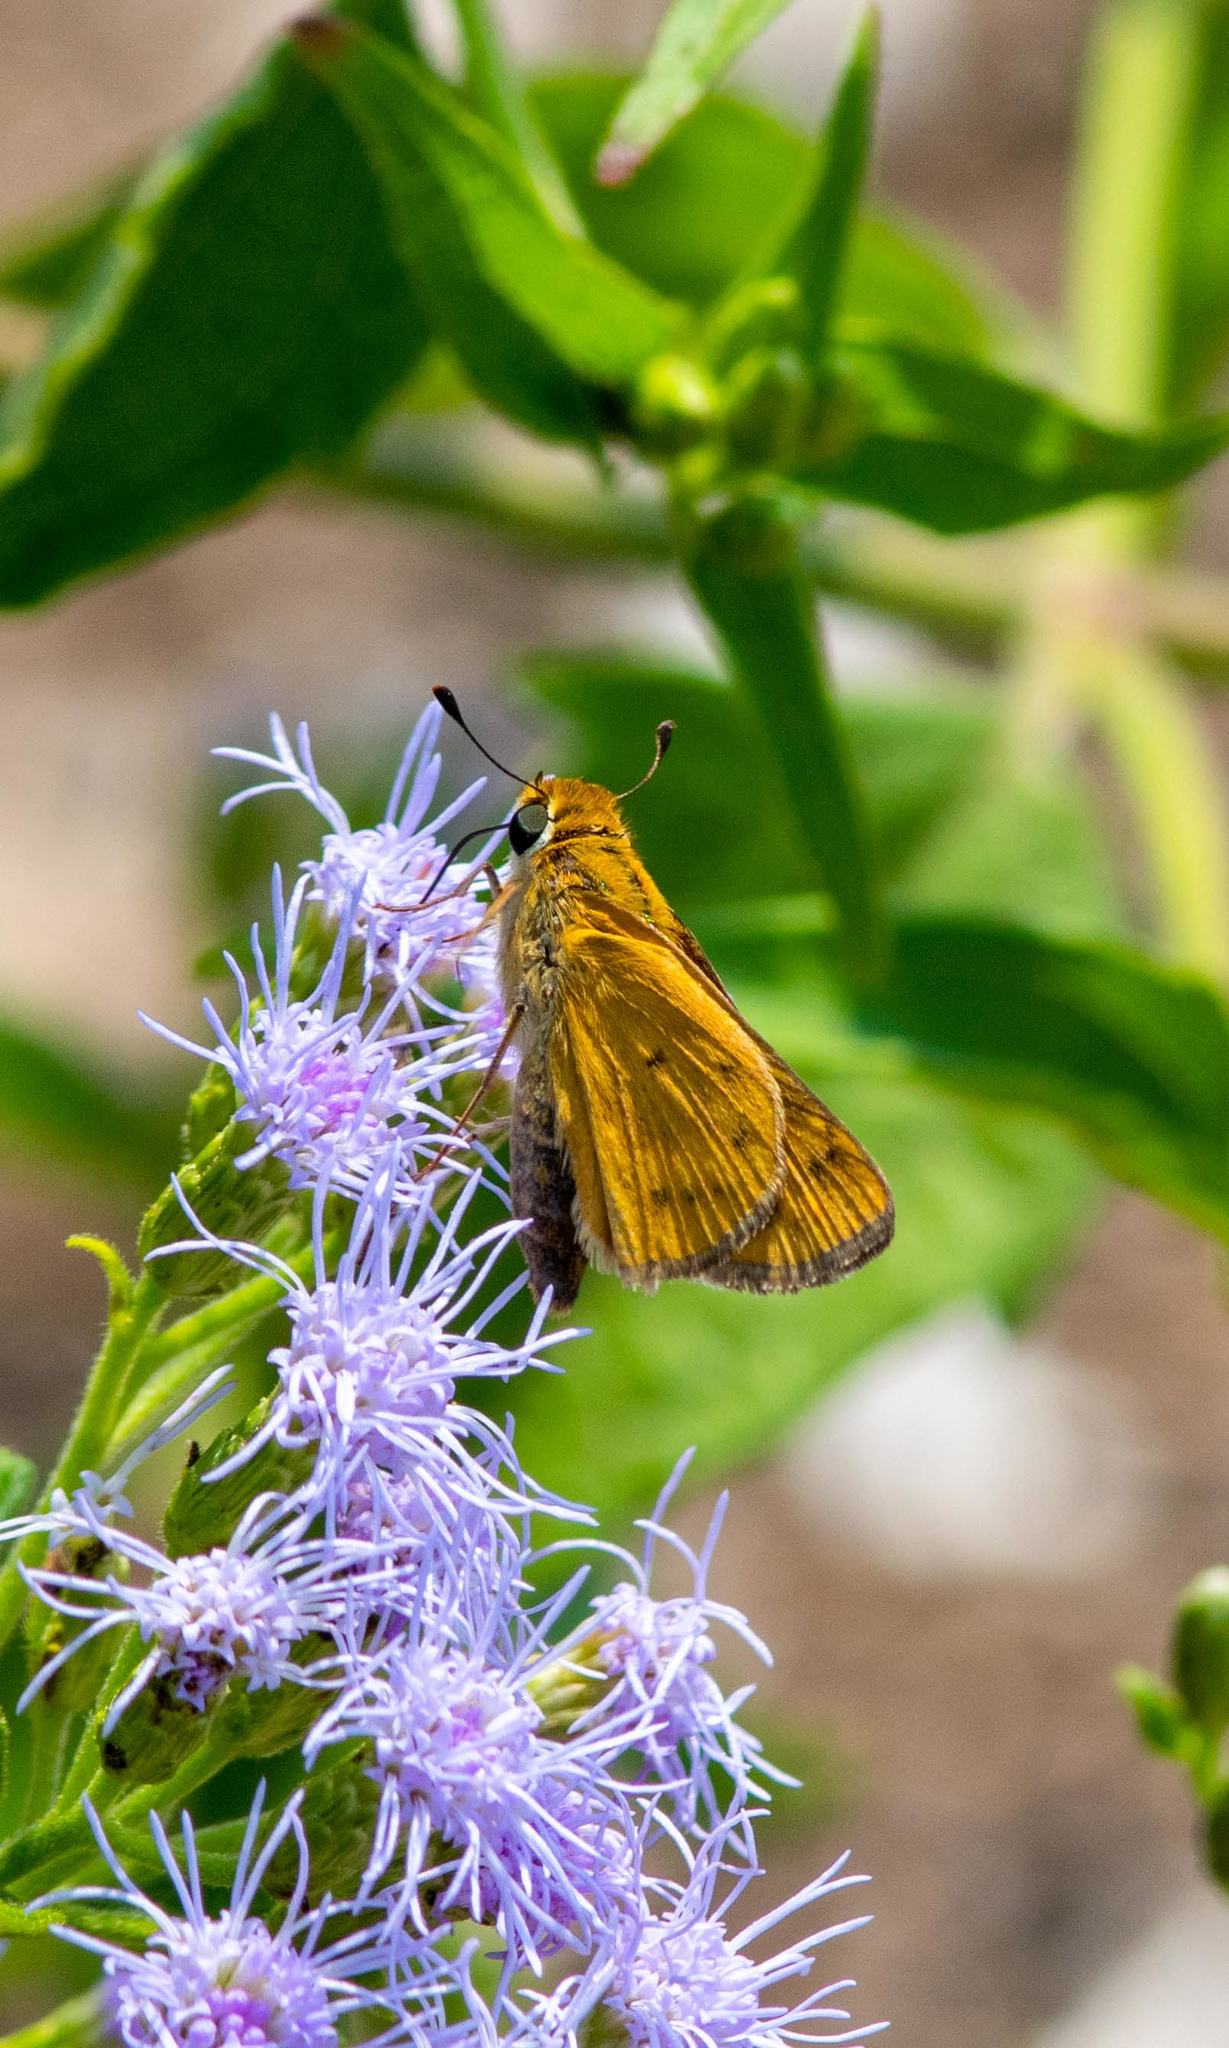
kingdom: Animalia
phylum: Arthropoda
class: Insecta
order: Lepidoptera
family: Hesperiidae
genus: Hylephila
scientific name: Hylephila phyleus
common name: Fiery skipper
